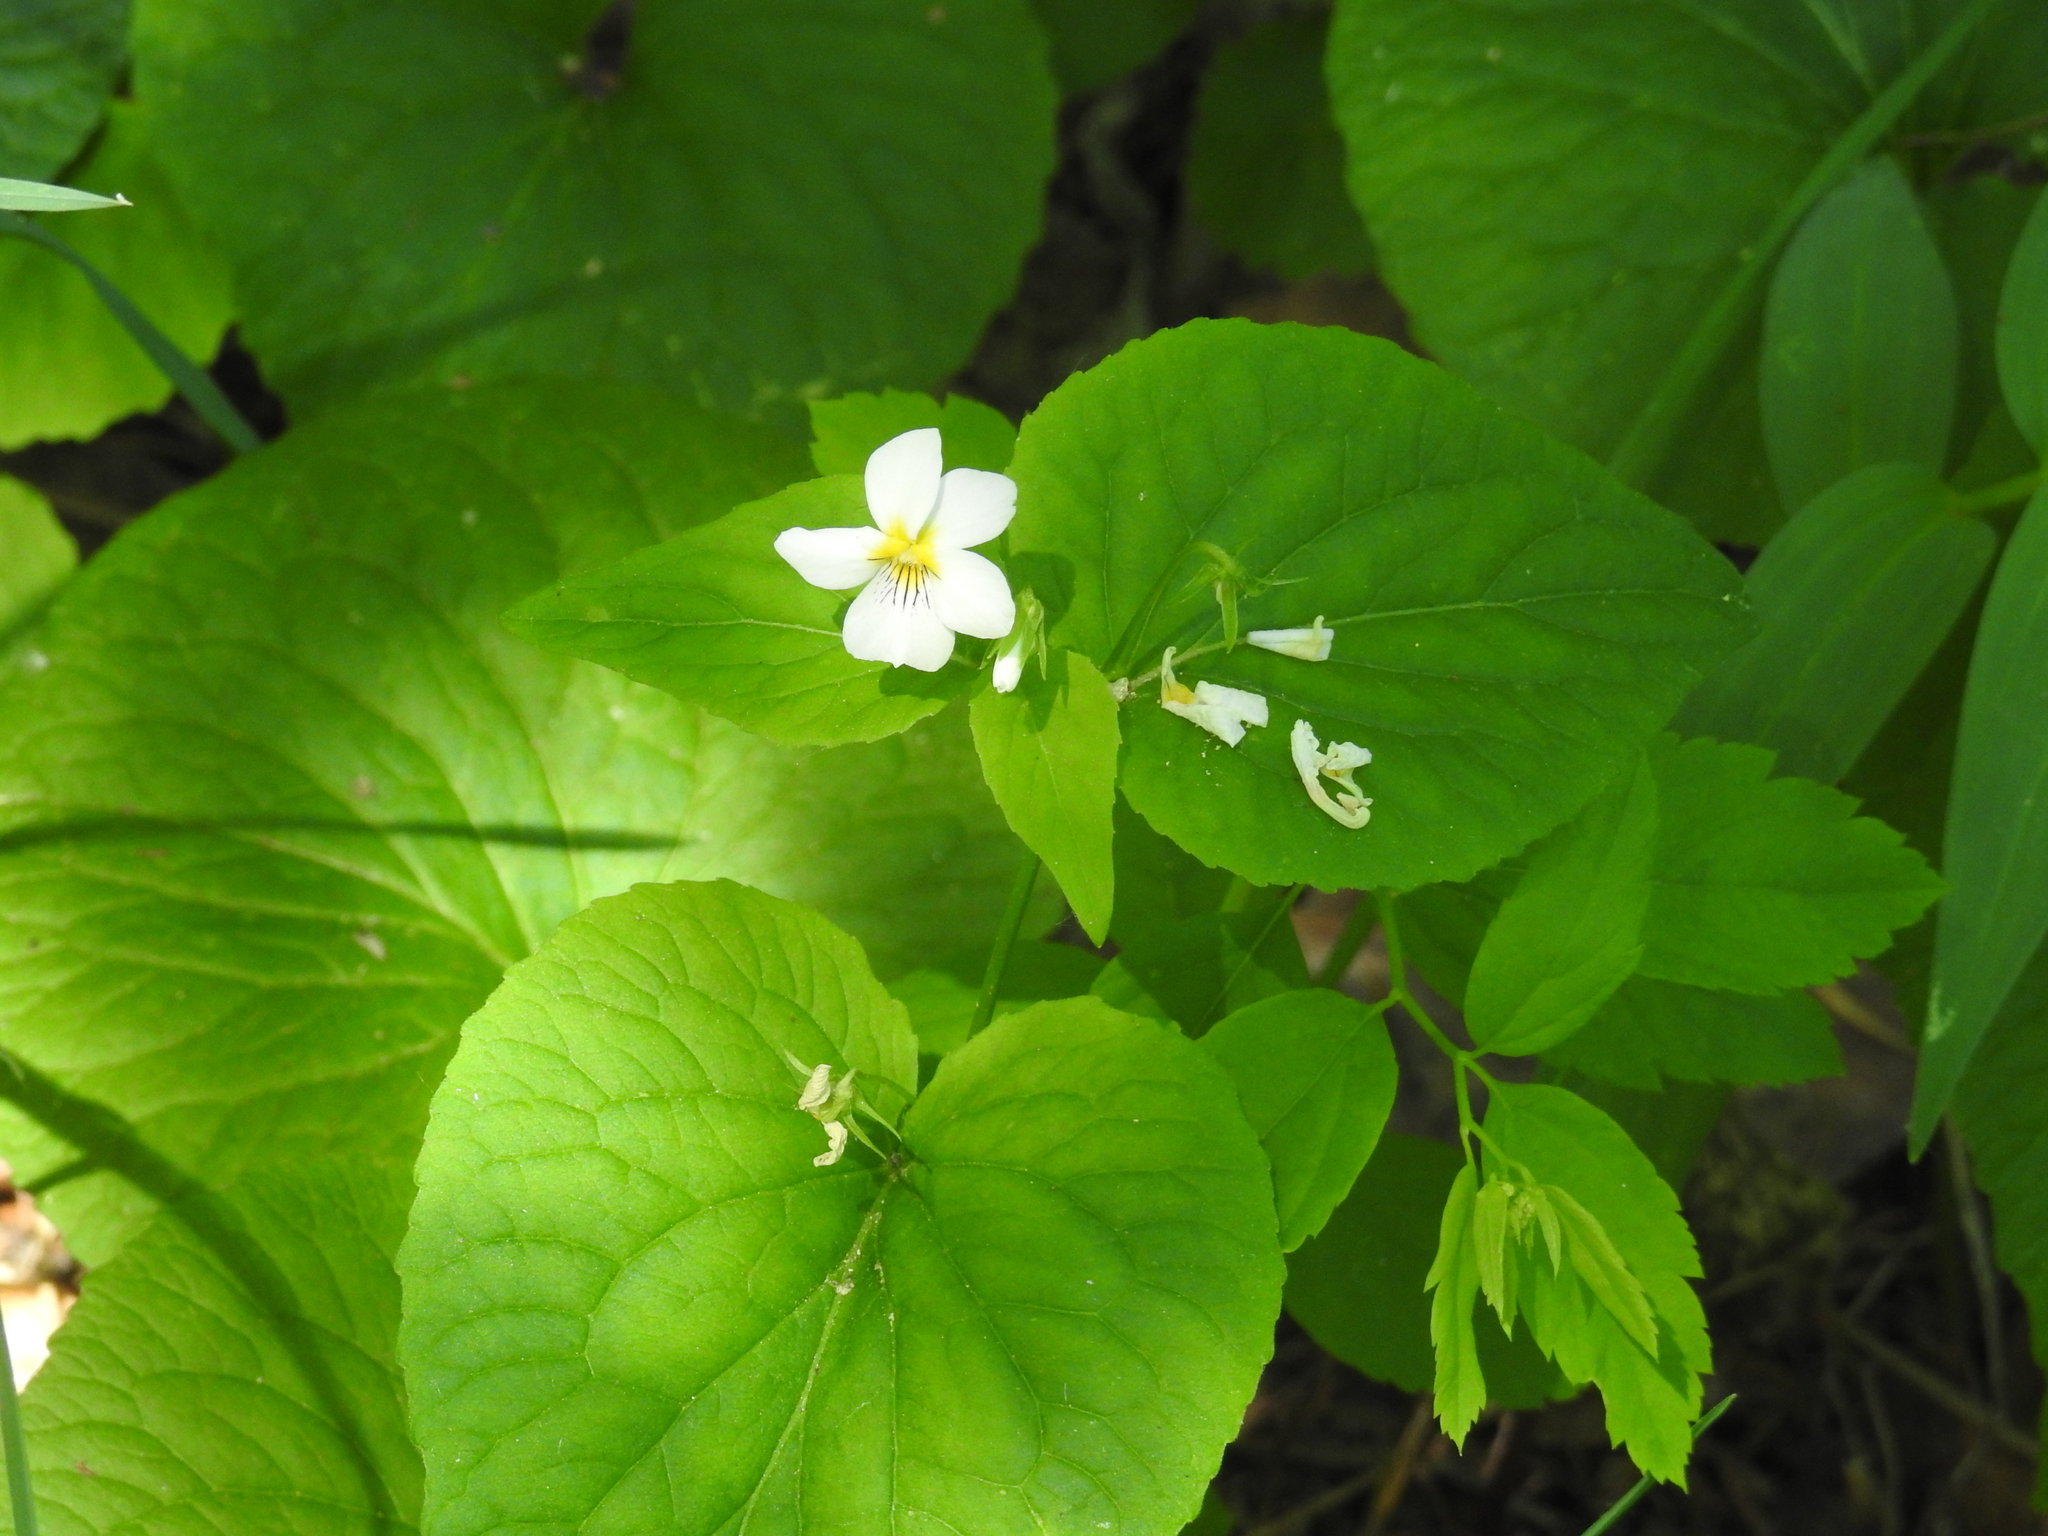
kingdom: Plantae
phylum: Tracheophyta
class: Magnoliopsida
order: Malpighiales
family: Violaceae
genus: Viola
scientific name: Viola canadensis
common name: Canada violet
